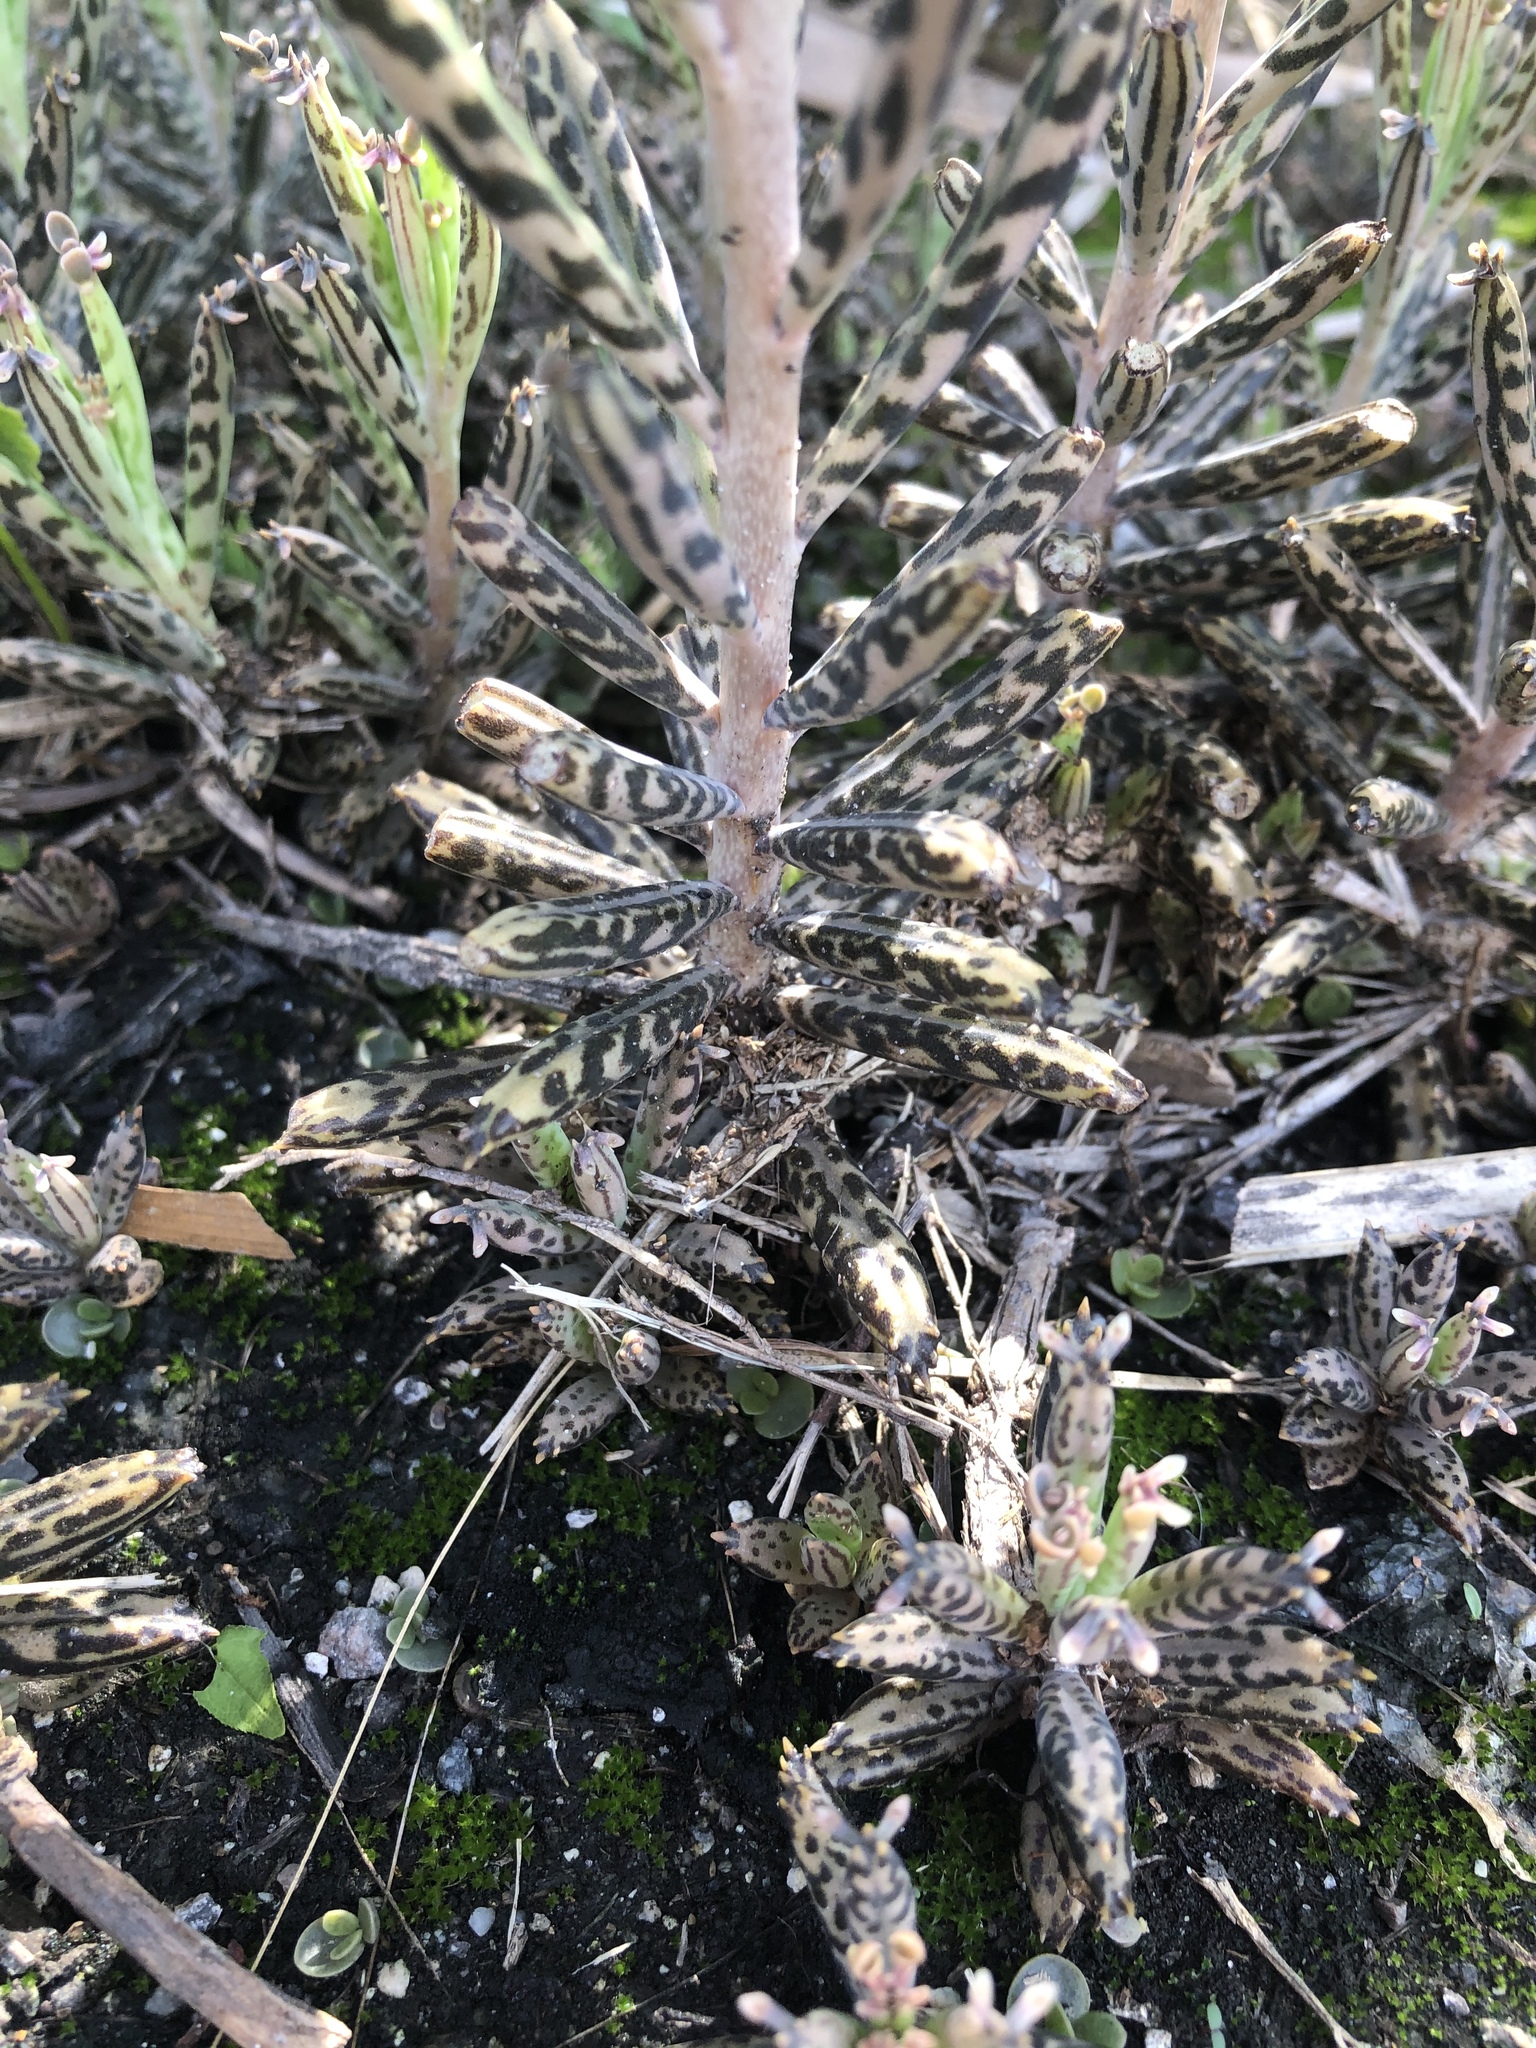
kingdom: Plantae
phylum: Tracheophyta
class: Magnoliopsida
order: Saxifragales
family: Crassulaceae
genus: Kalanchoe
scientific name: Kalanchoe delagoensis
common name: Chandelier plant
